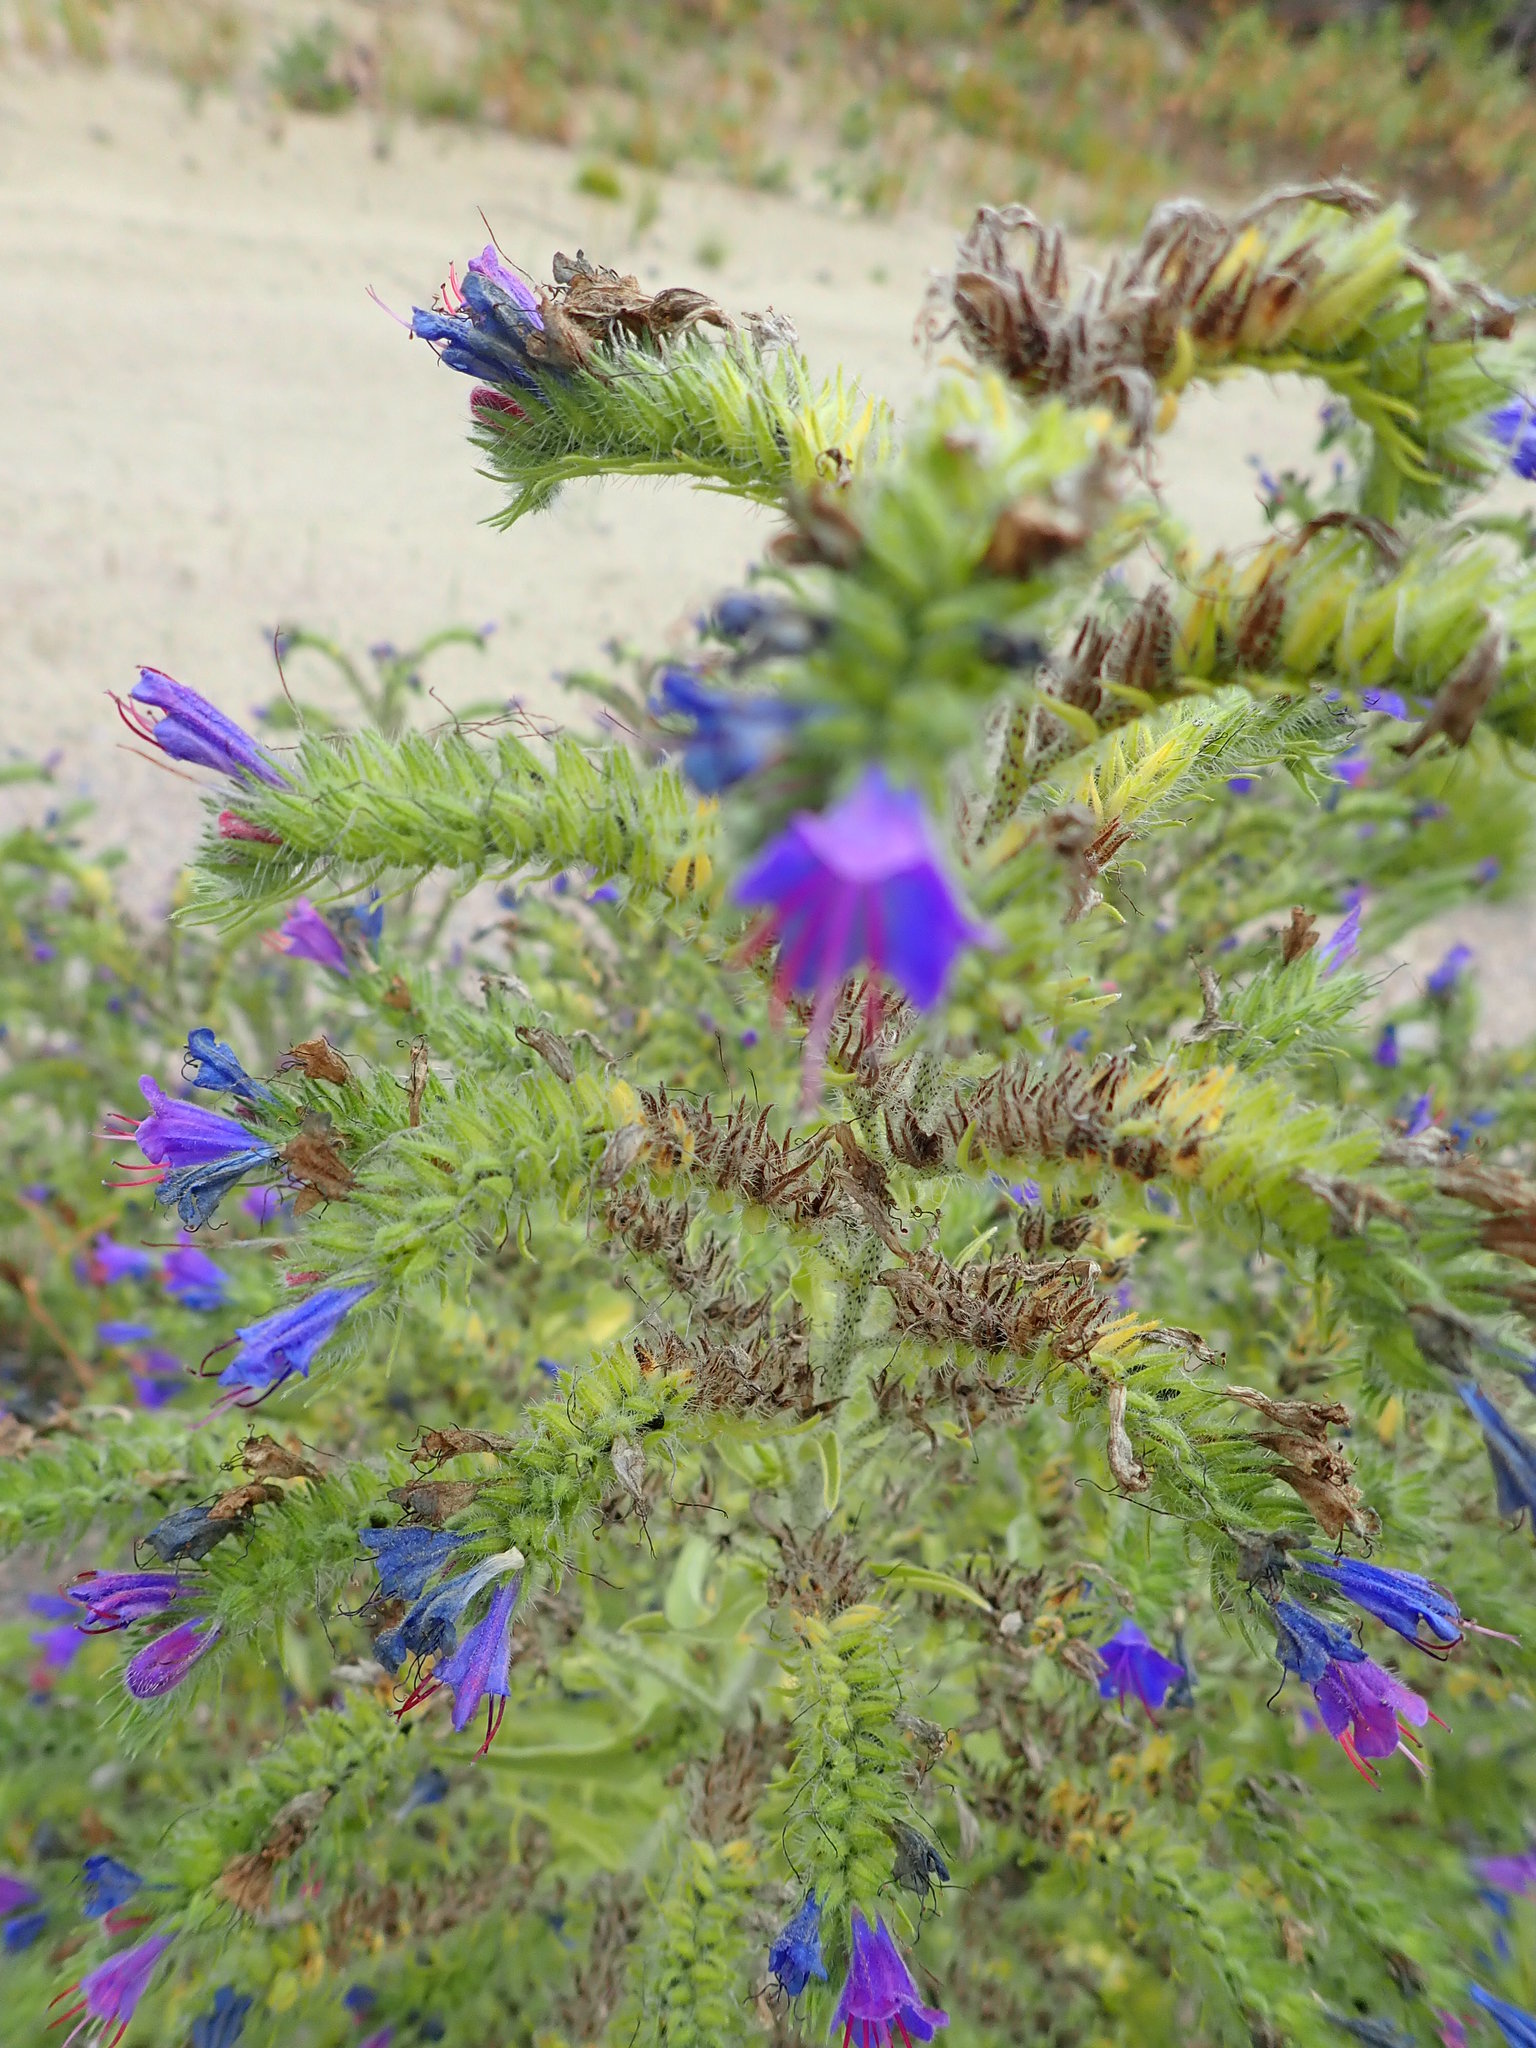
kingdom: Plantae
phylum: Tracheophyta
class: Magnoliopsida
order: Boraginales
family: Boraginaceae
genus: Echium
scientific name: Echium vulgare
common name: Common viper's bugloss
